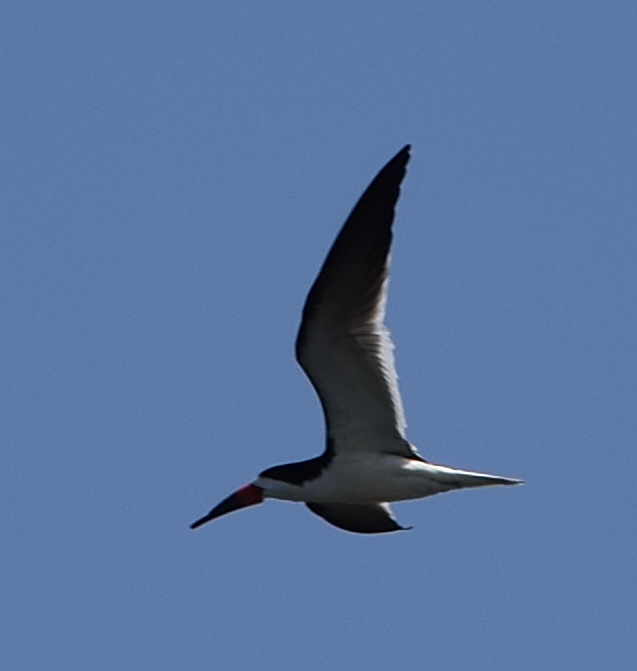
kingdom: Animalia
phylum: Chordata
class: Aves
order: Charadriiformes
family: Laridae
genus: Rynchops
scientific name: Rynchops niger
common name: Black skimmer
